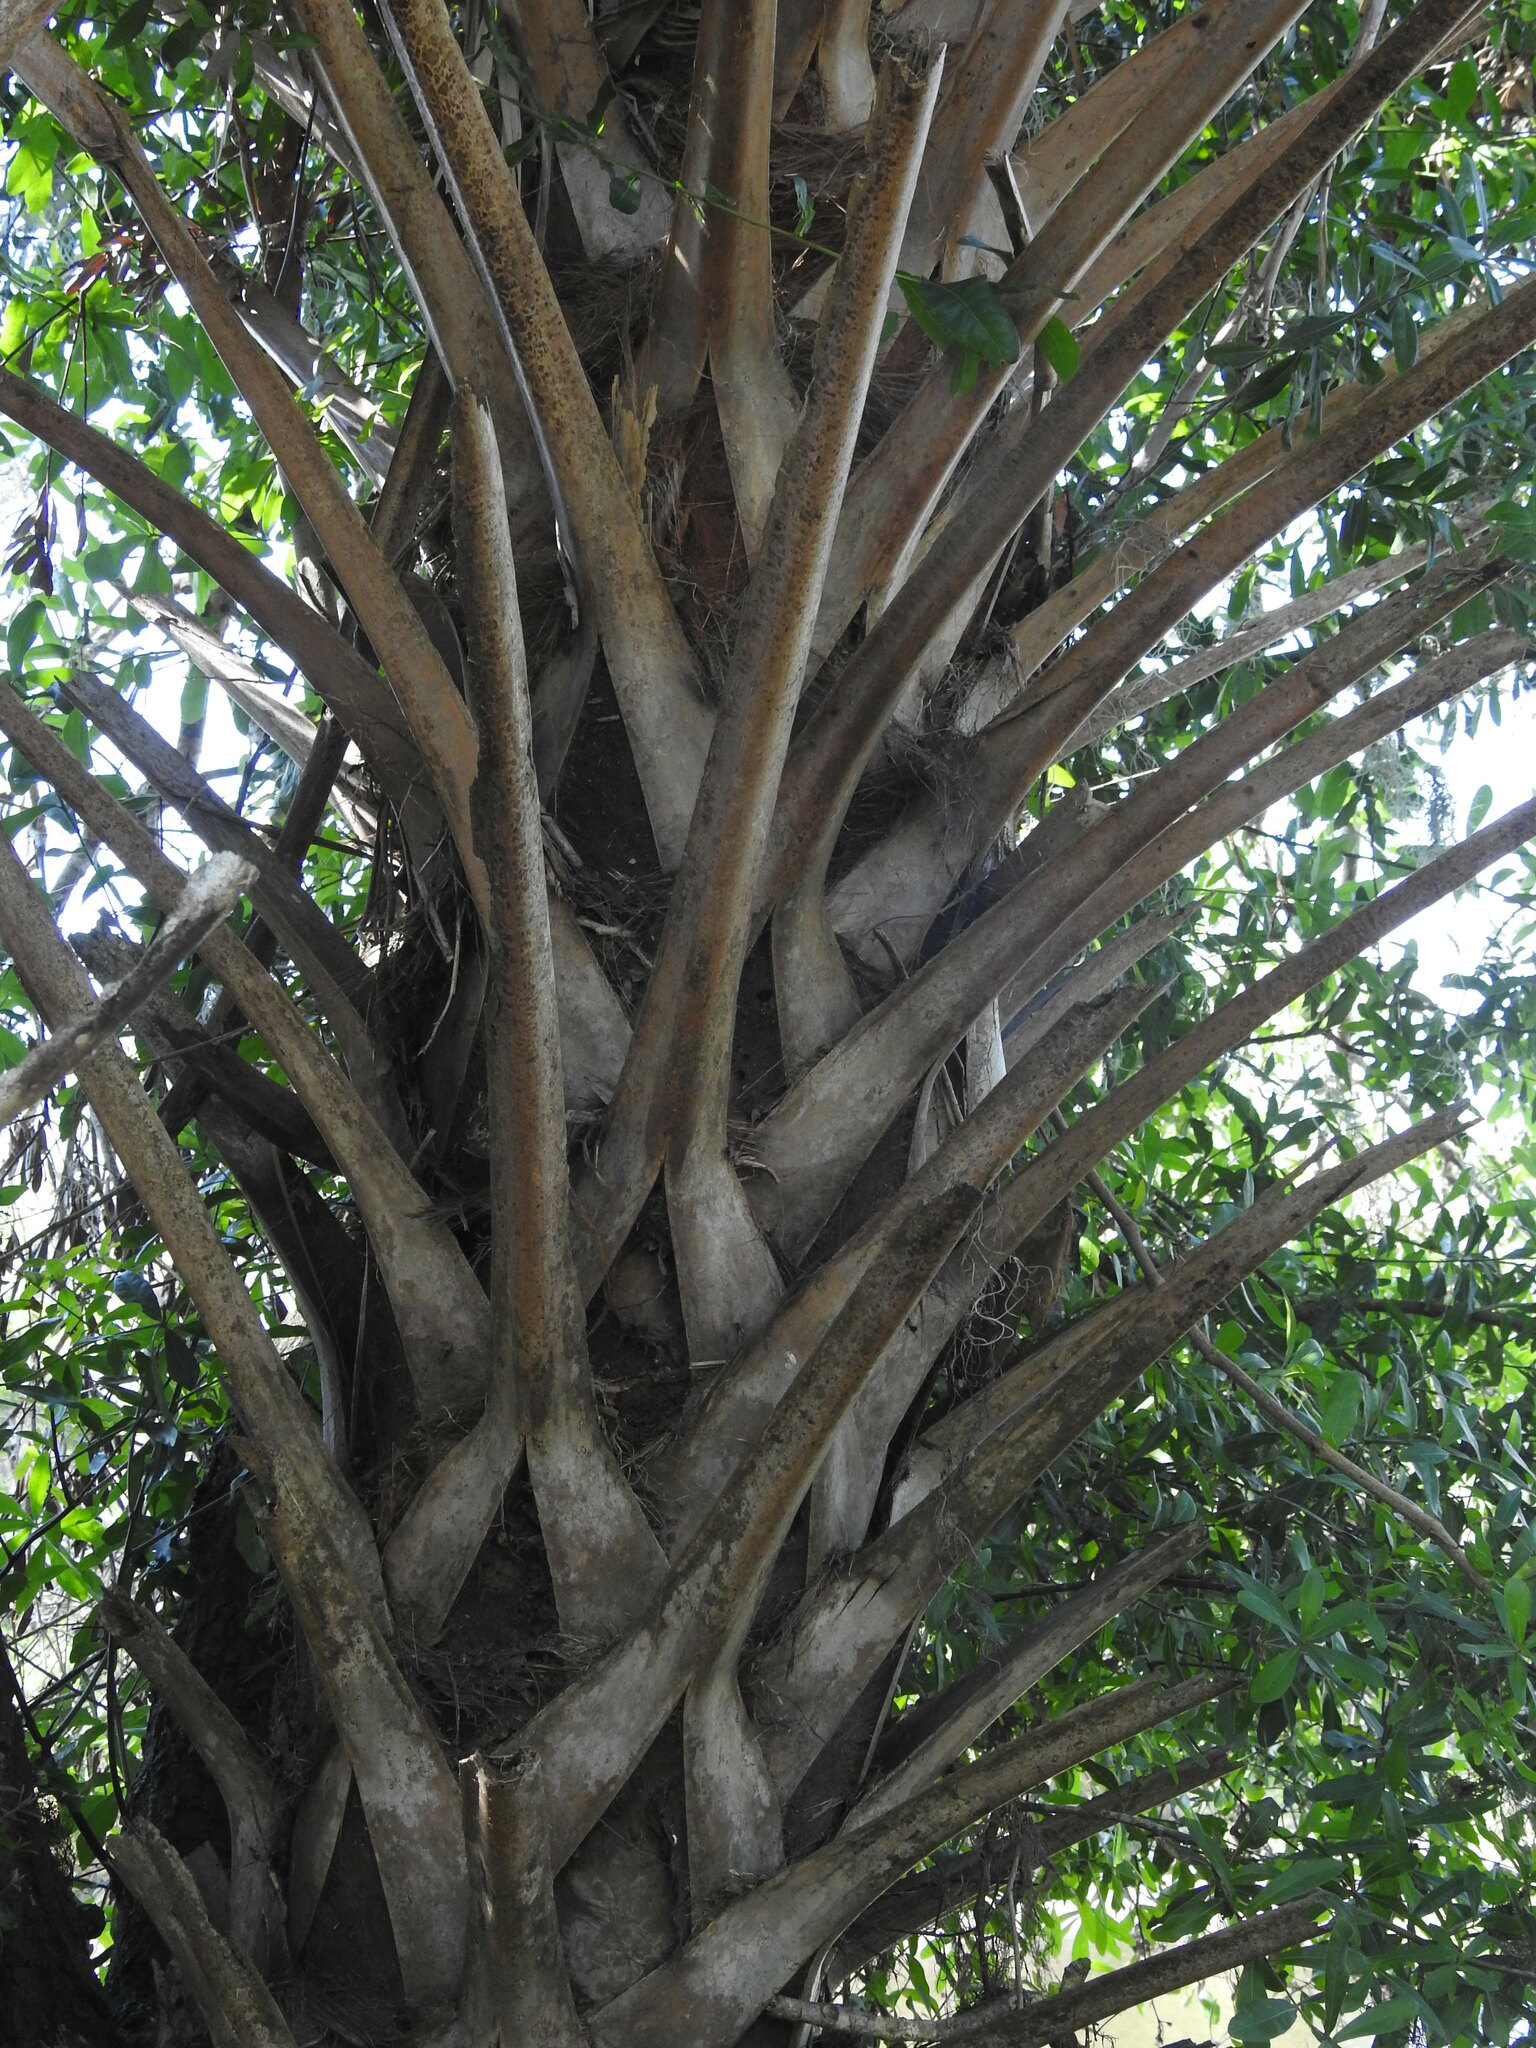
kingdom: Plantae
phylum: Tracheophyta
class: Liliopsida
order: Arecales
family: Arecaceae
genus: Sabal
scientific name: Sabal palmetto
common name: Blue palmetto
